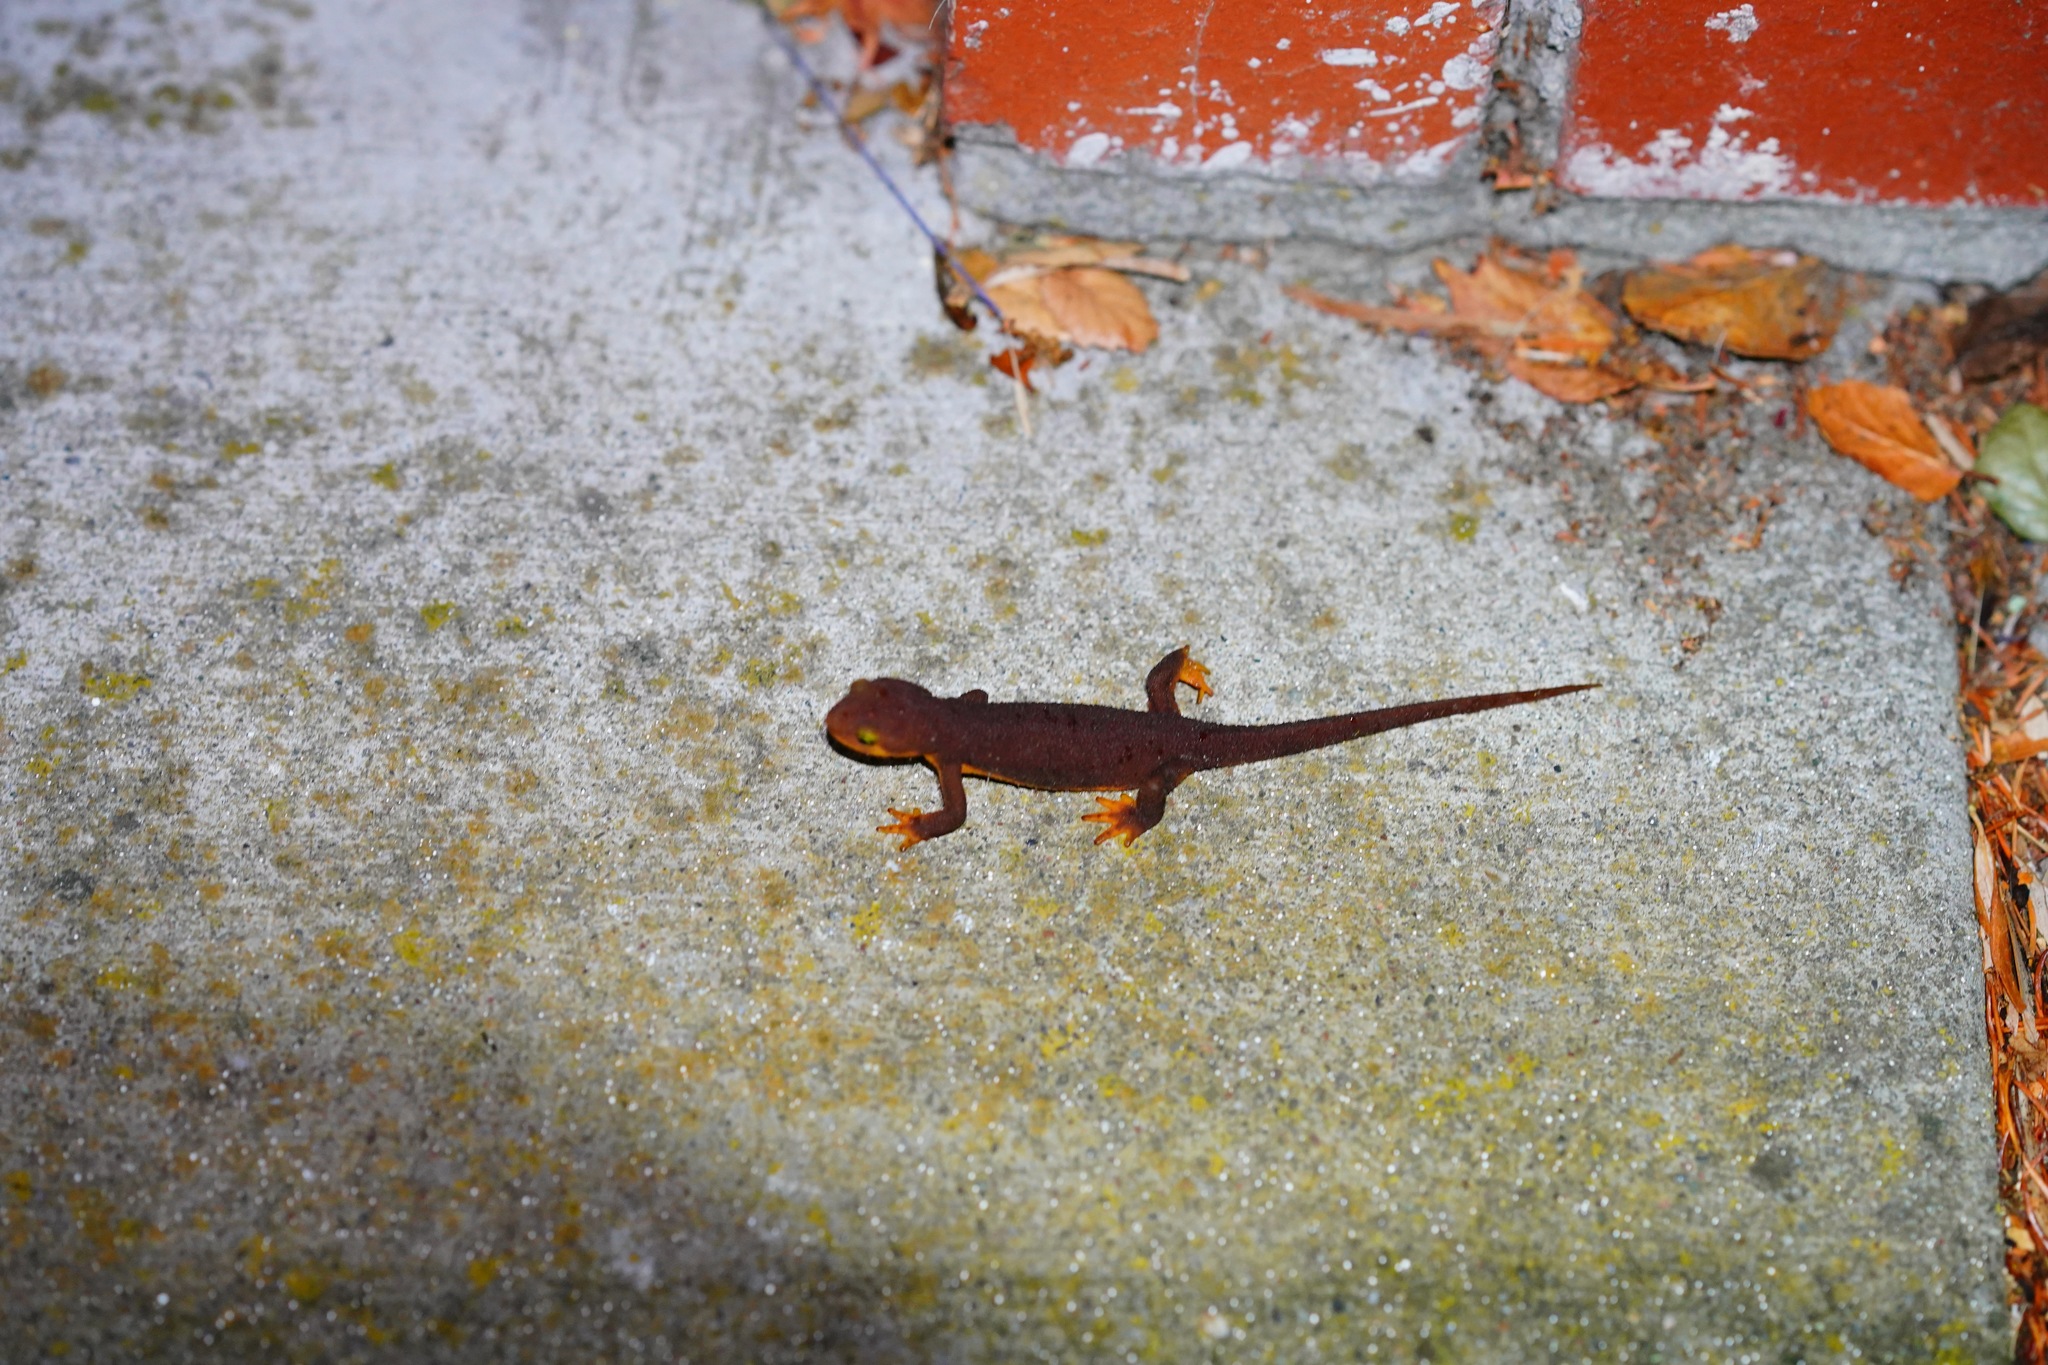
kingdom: Animalia
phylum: Chordata
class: Amphibia
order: Caudata
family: Salamandridae
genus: Taricha
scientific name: Taricha torosa
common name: California newt
